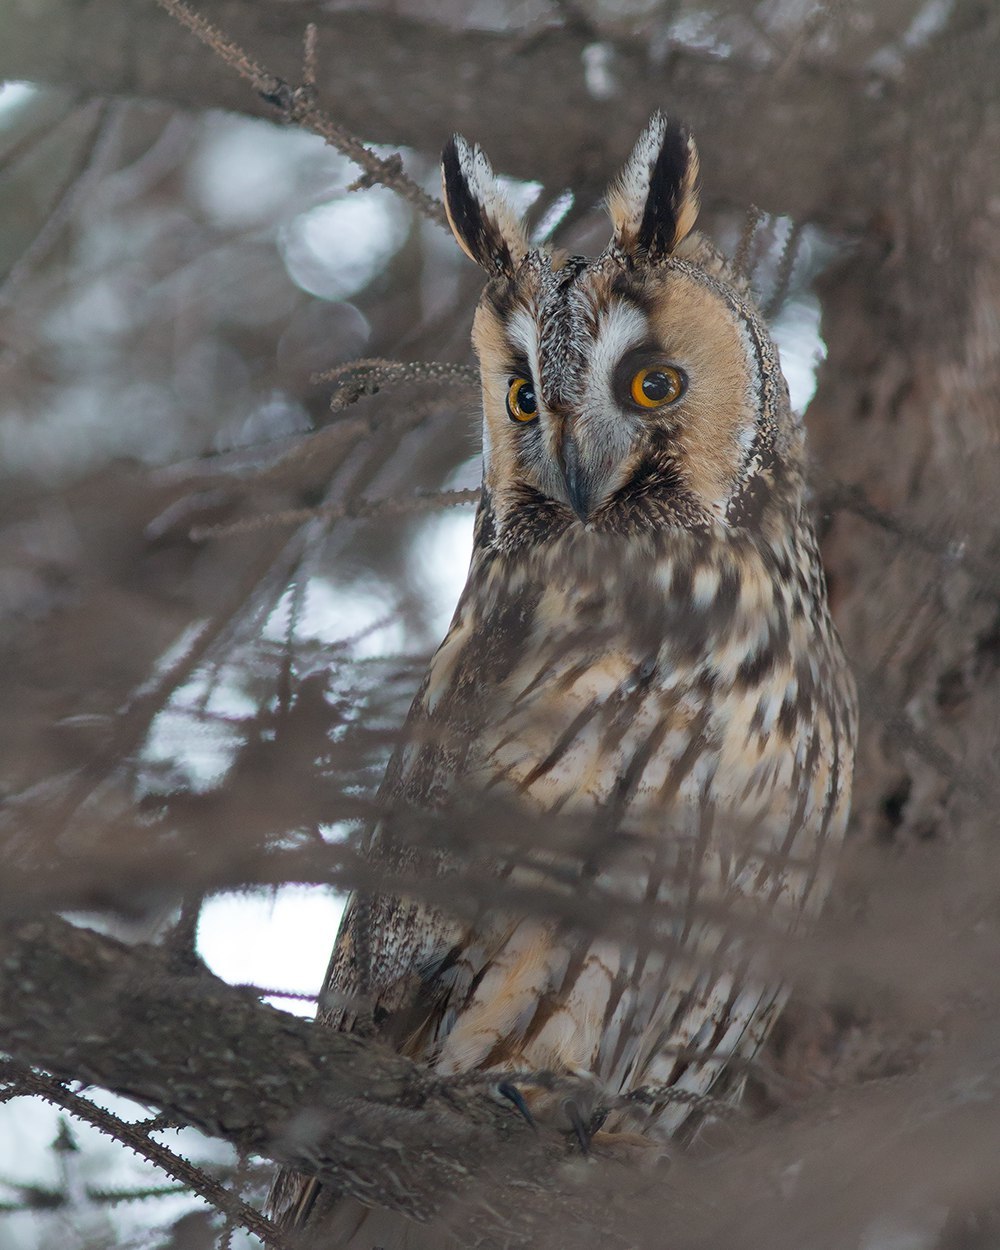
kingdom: Animalia
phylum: Chordata
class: Aves
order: Strigiformes
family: Strigidae
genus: Asio
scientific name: Asio otus
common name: Long-eared owl
